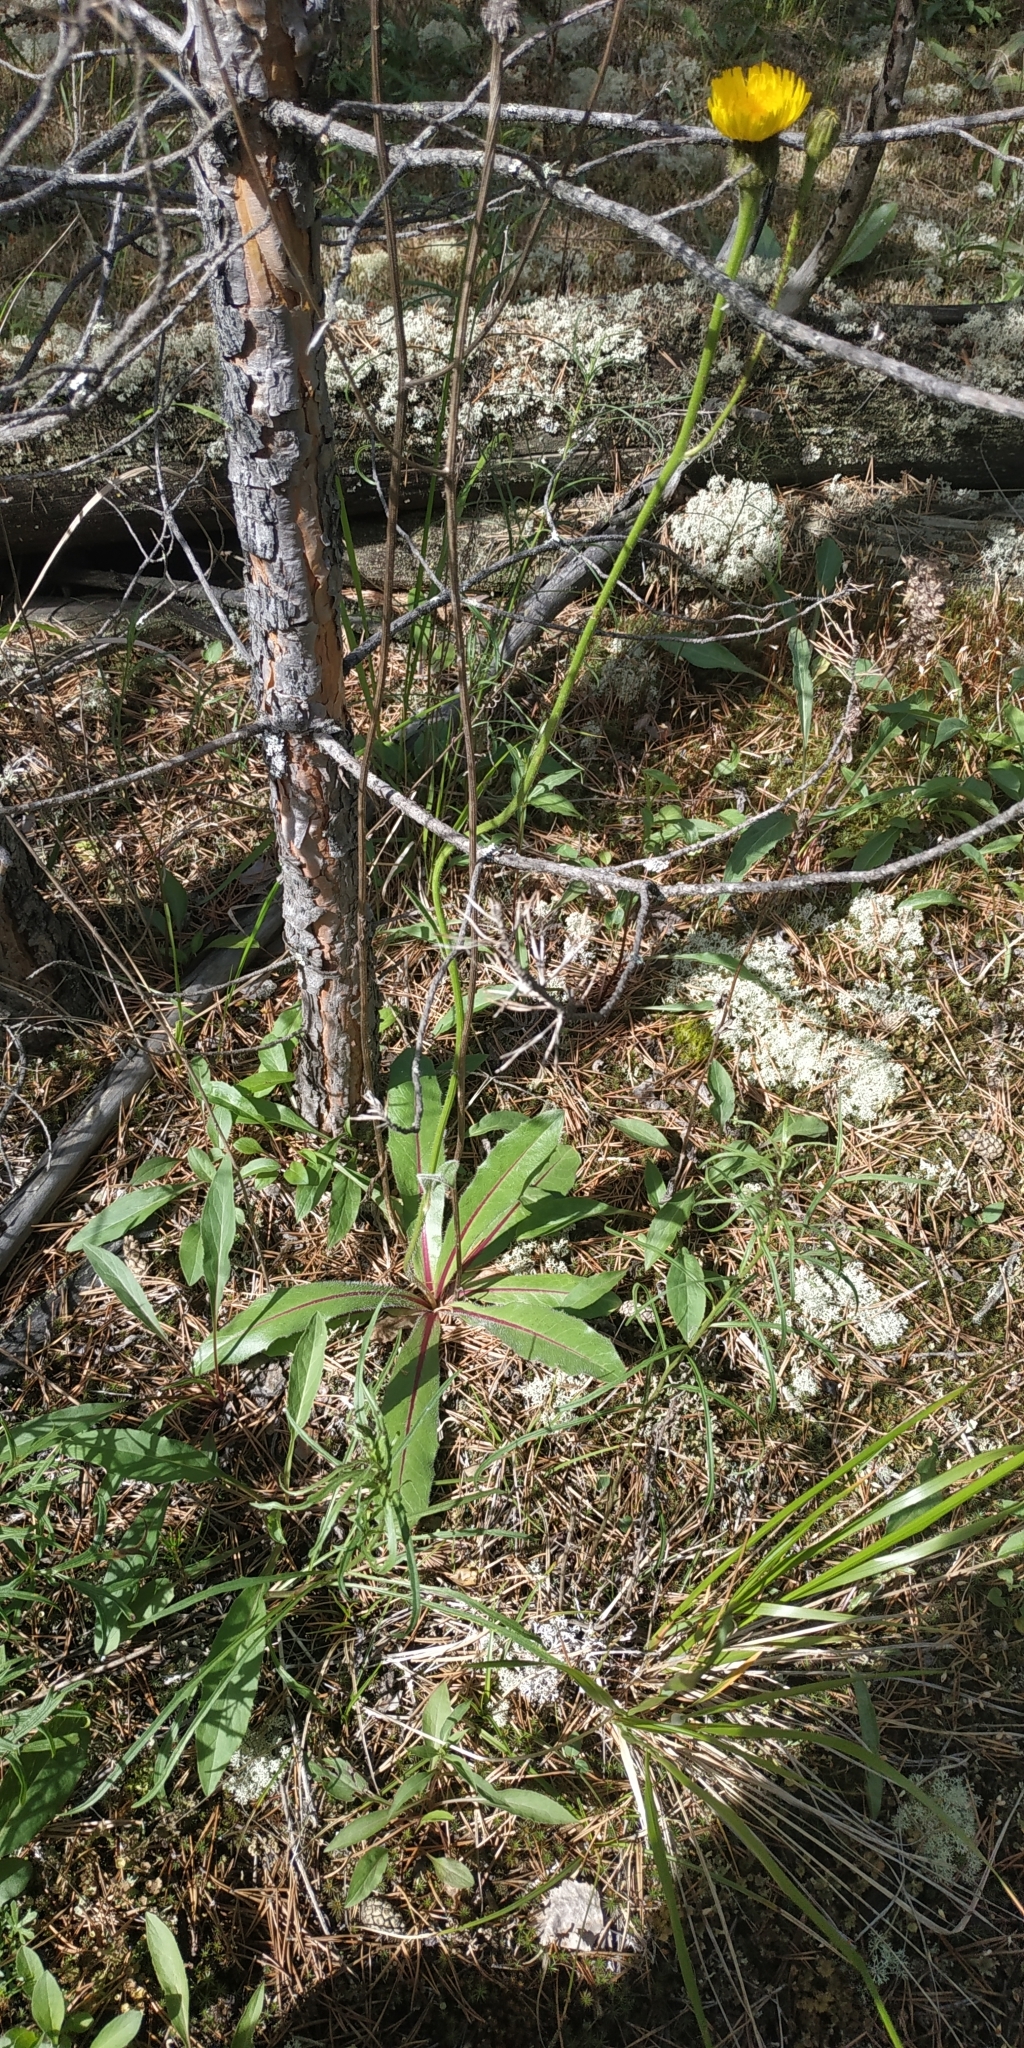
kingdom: Plantae
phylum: Tracheophyta
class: Magnoliopsida
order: Asterales
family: Asteraceae
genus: Trommsdorffia
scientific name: Trommsdorffia maculata
